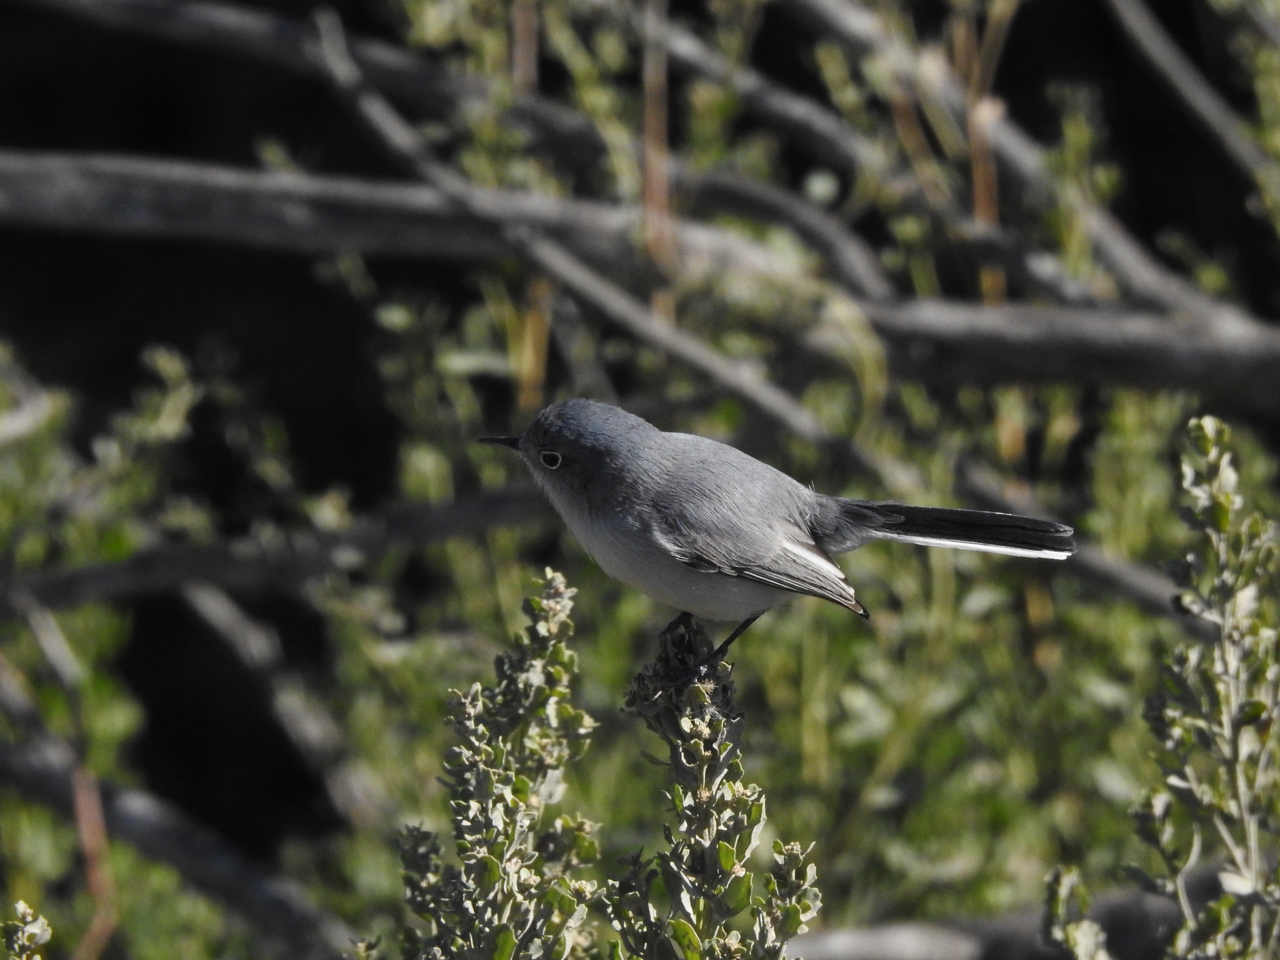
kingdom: Animalia
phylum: Chordata
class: Aves
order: Passeriformes
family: Polioptilidae
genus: Polioptila
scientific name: Polioptila caerulea
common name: Blue-gray gnatcatcher
